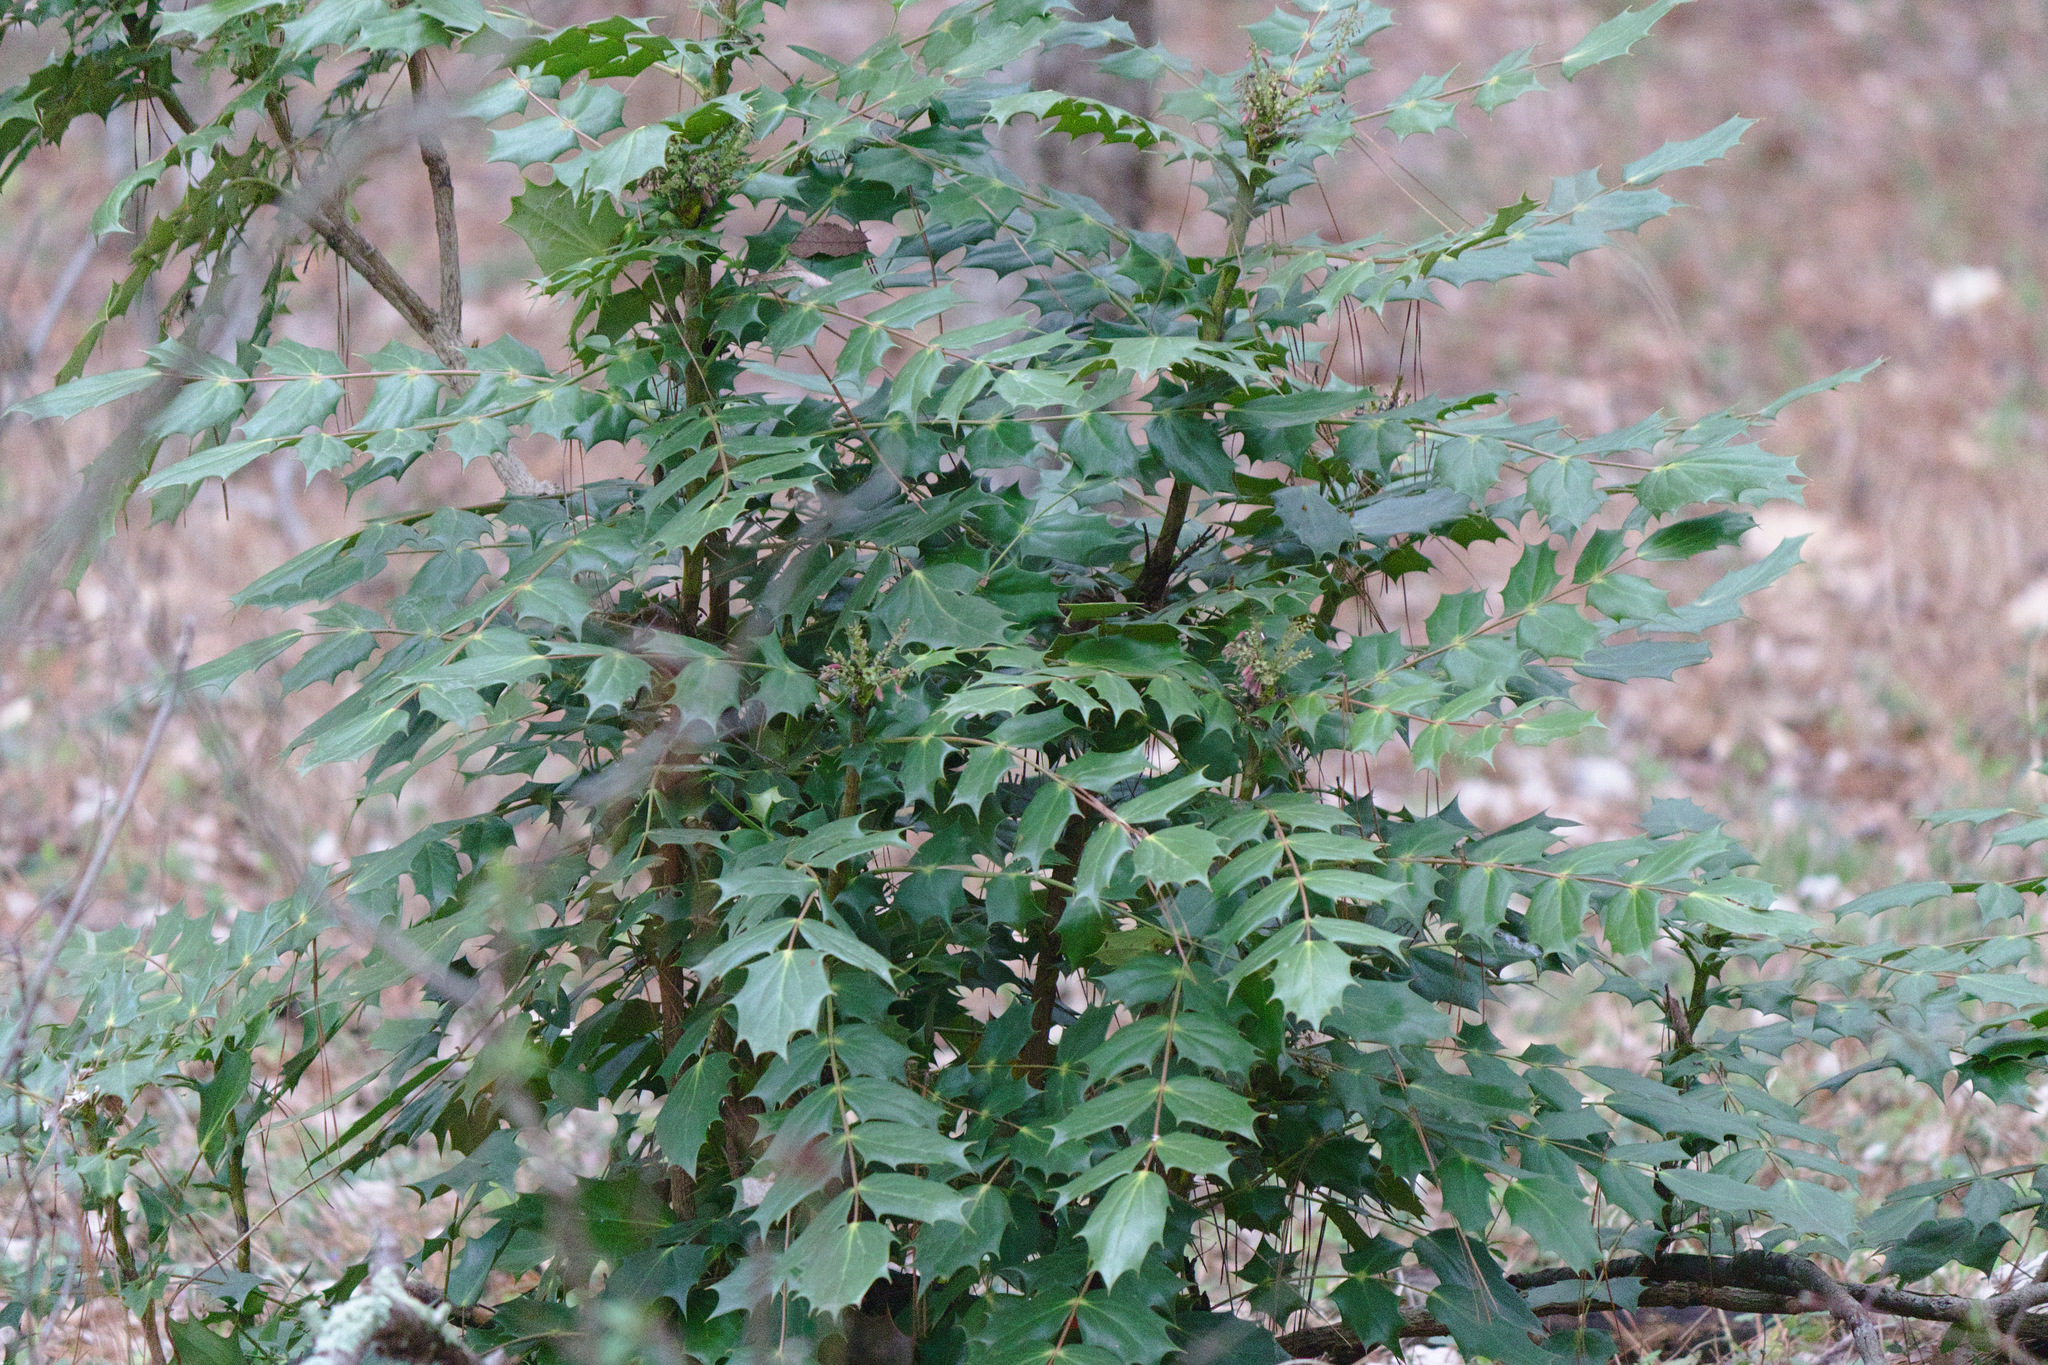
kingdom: Plantae
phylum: Tracheophyta
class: Magnoliopsida
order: Ranunculales
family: Berberidaceae
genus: Mahonia
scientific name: Mahonia bealei
